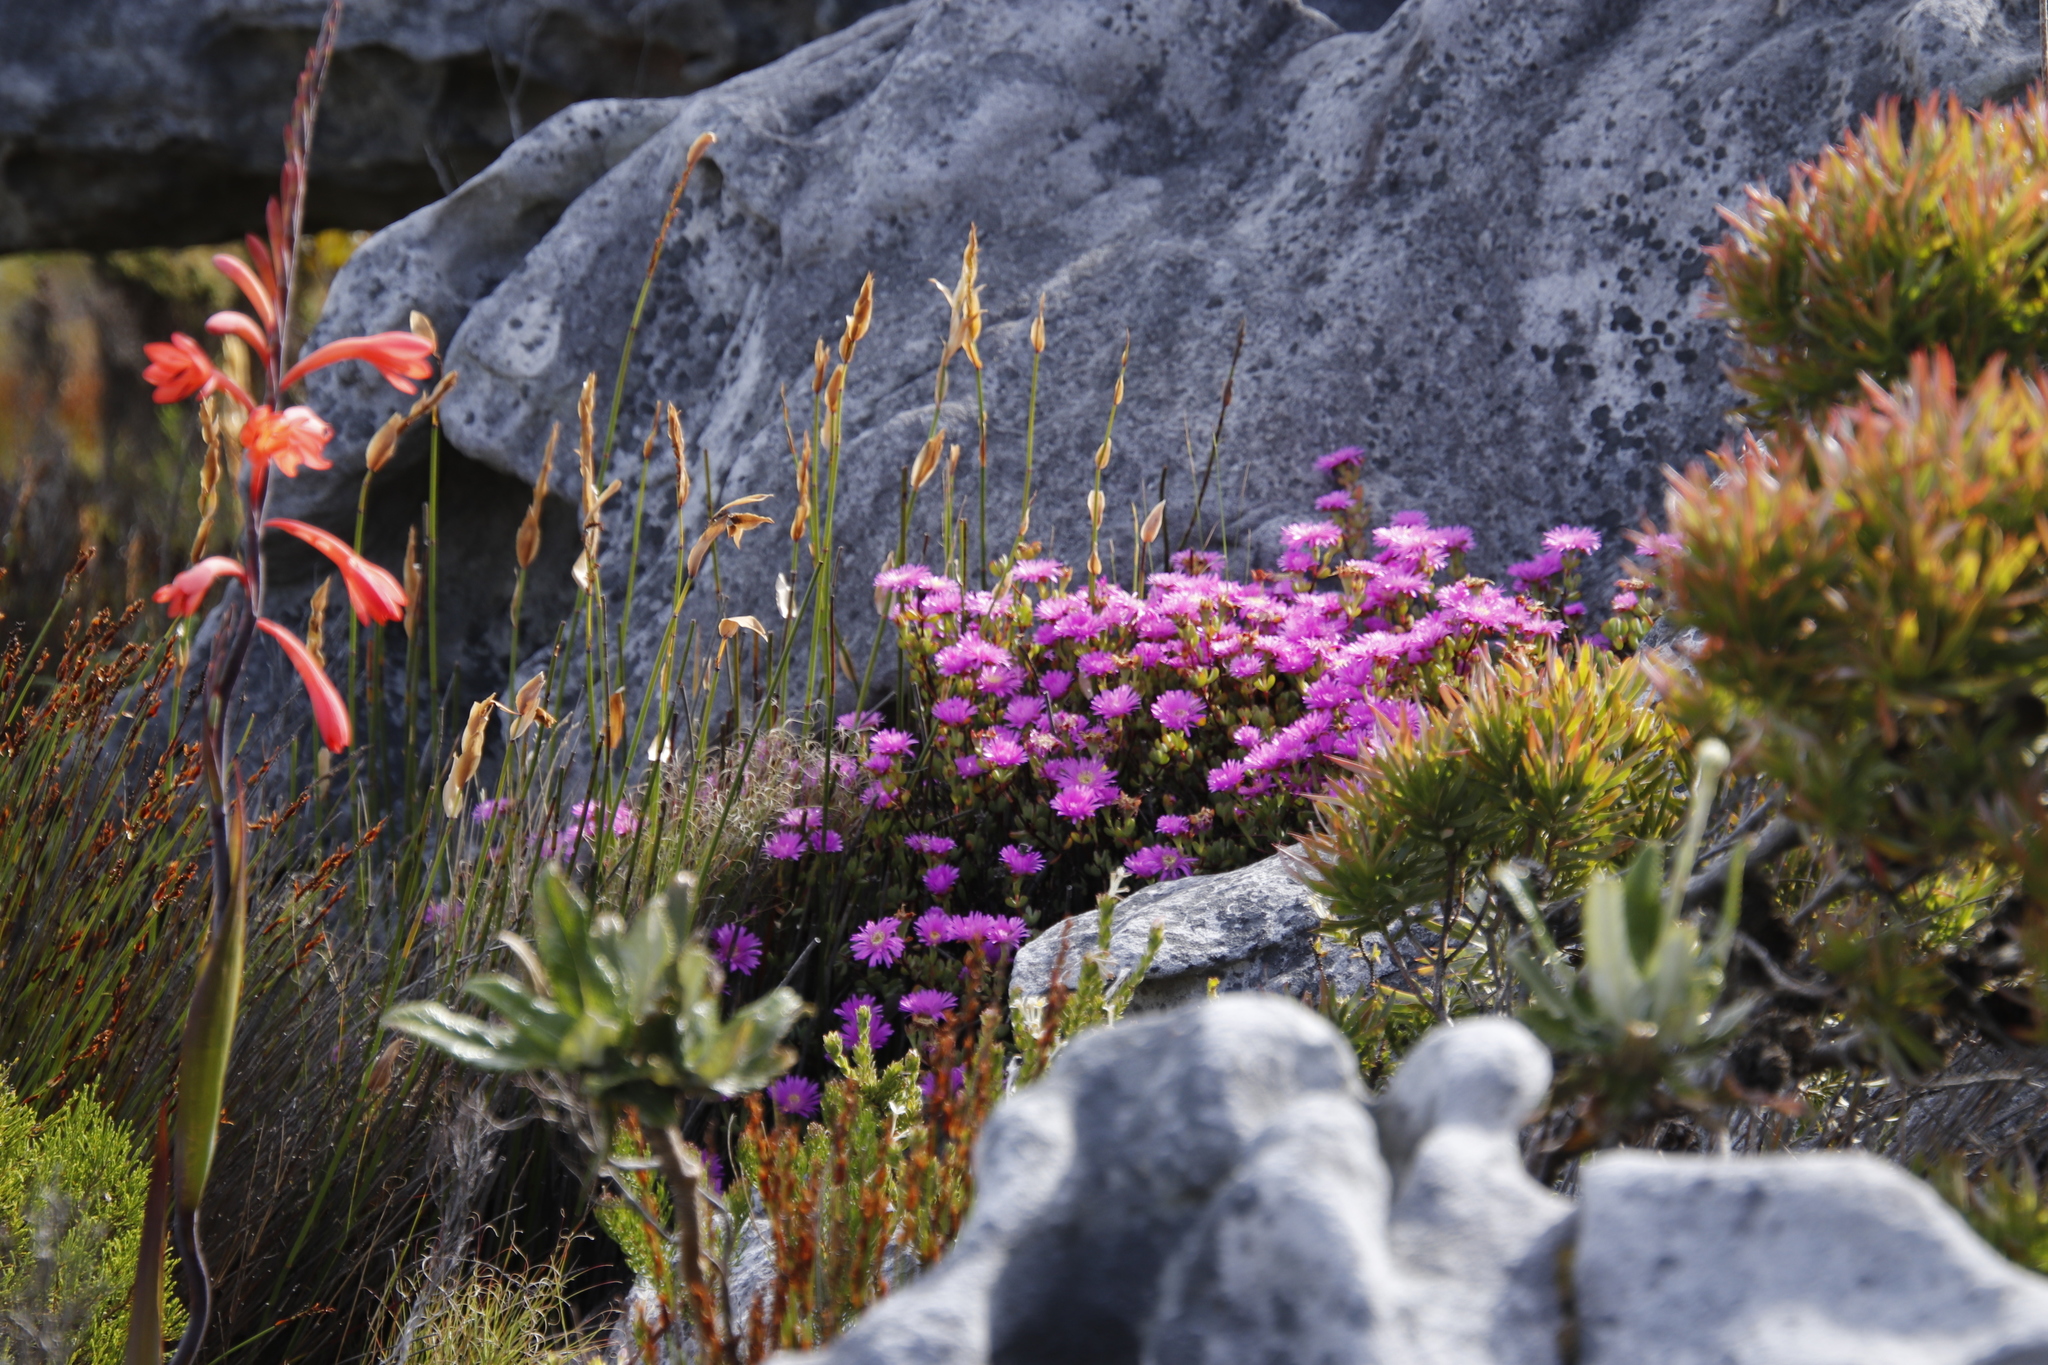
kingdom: Plantae
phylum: Tracheophyta
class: Magnoliopsida
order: Caryophyllales
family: Aizoaceae
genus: Oscularia
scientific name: Oscularia falciformis
